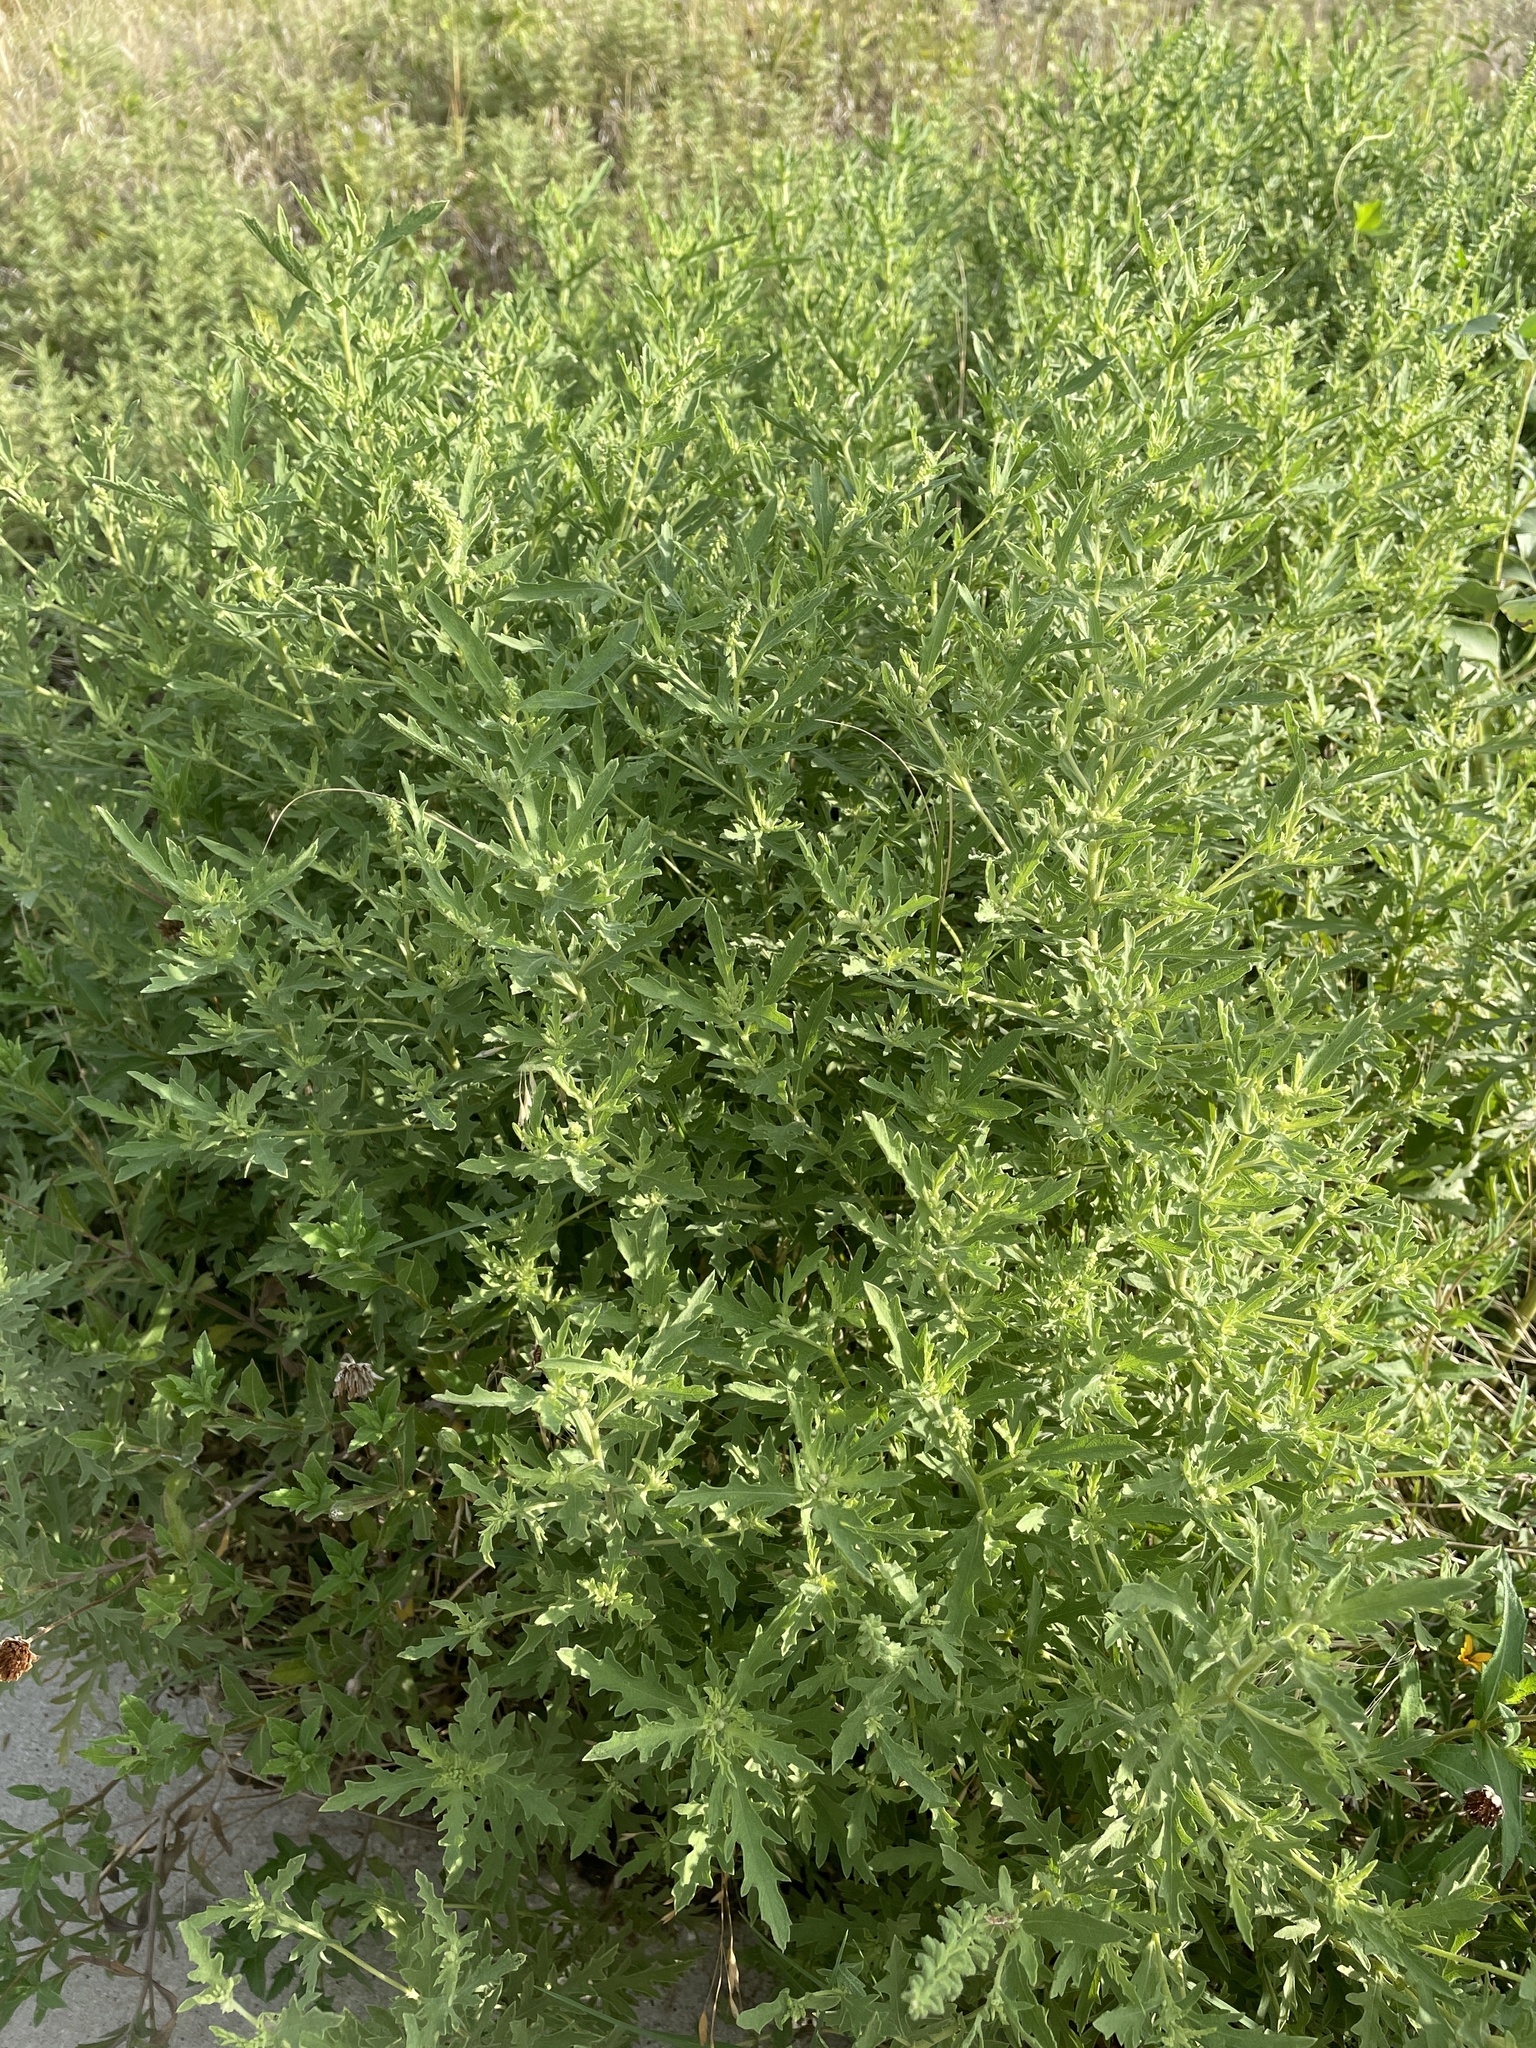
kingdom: Plantae
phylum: Tracheophyta
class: Magnoliopsida
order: Asterales
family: Asteraceae
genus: Ambrosia
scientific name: Ambrosia psilostachya
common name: Perennial ragweed
